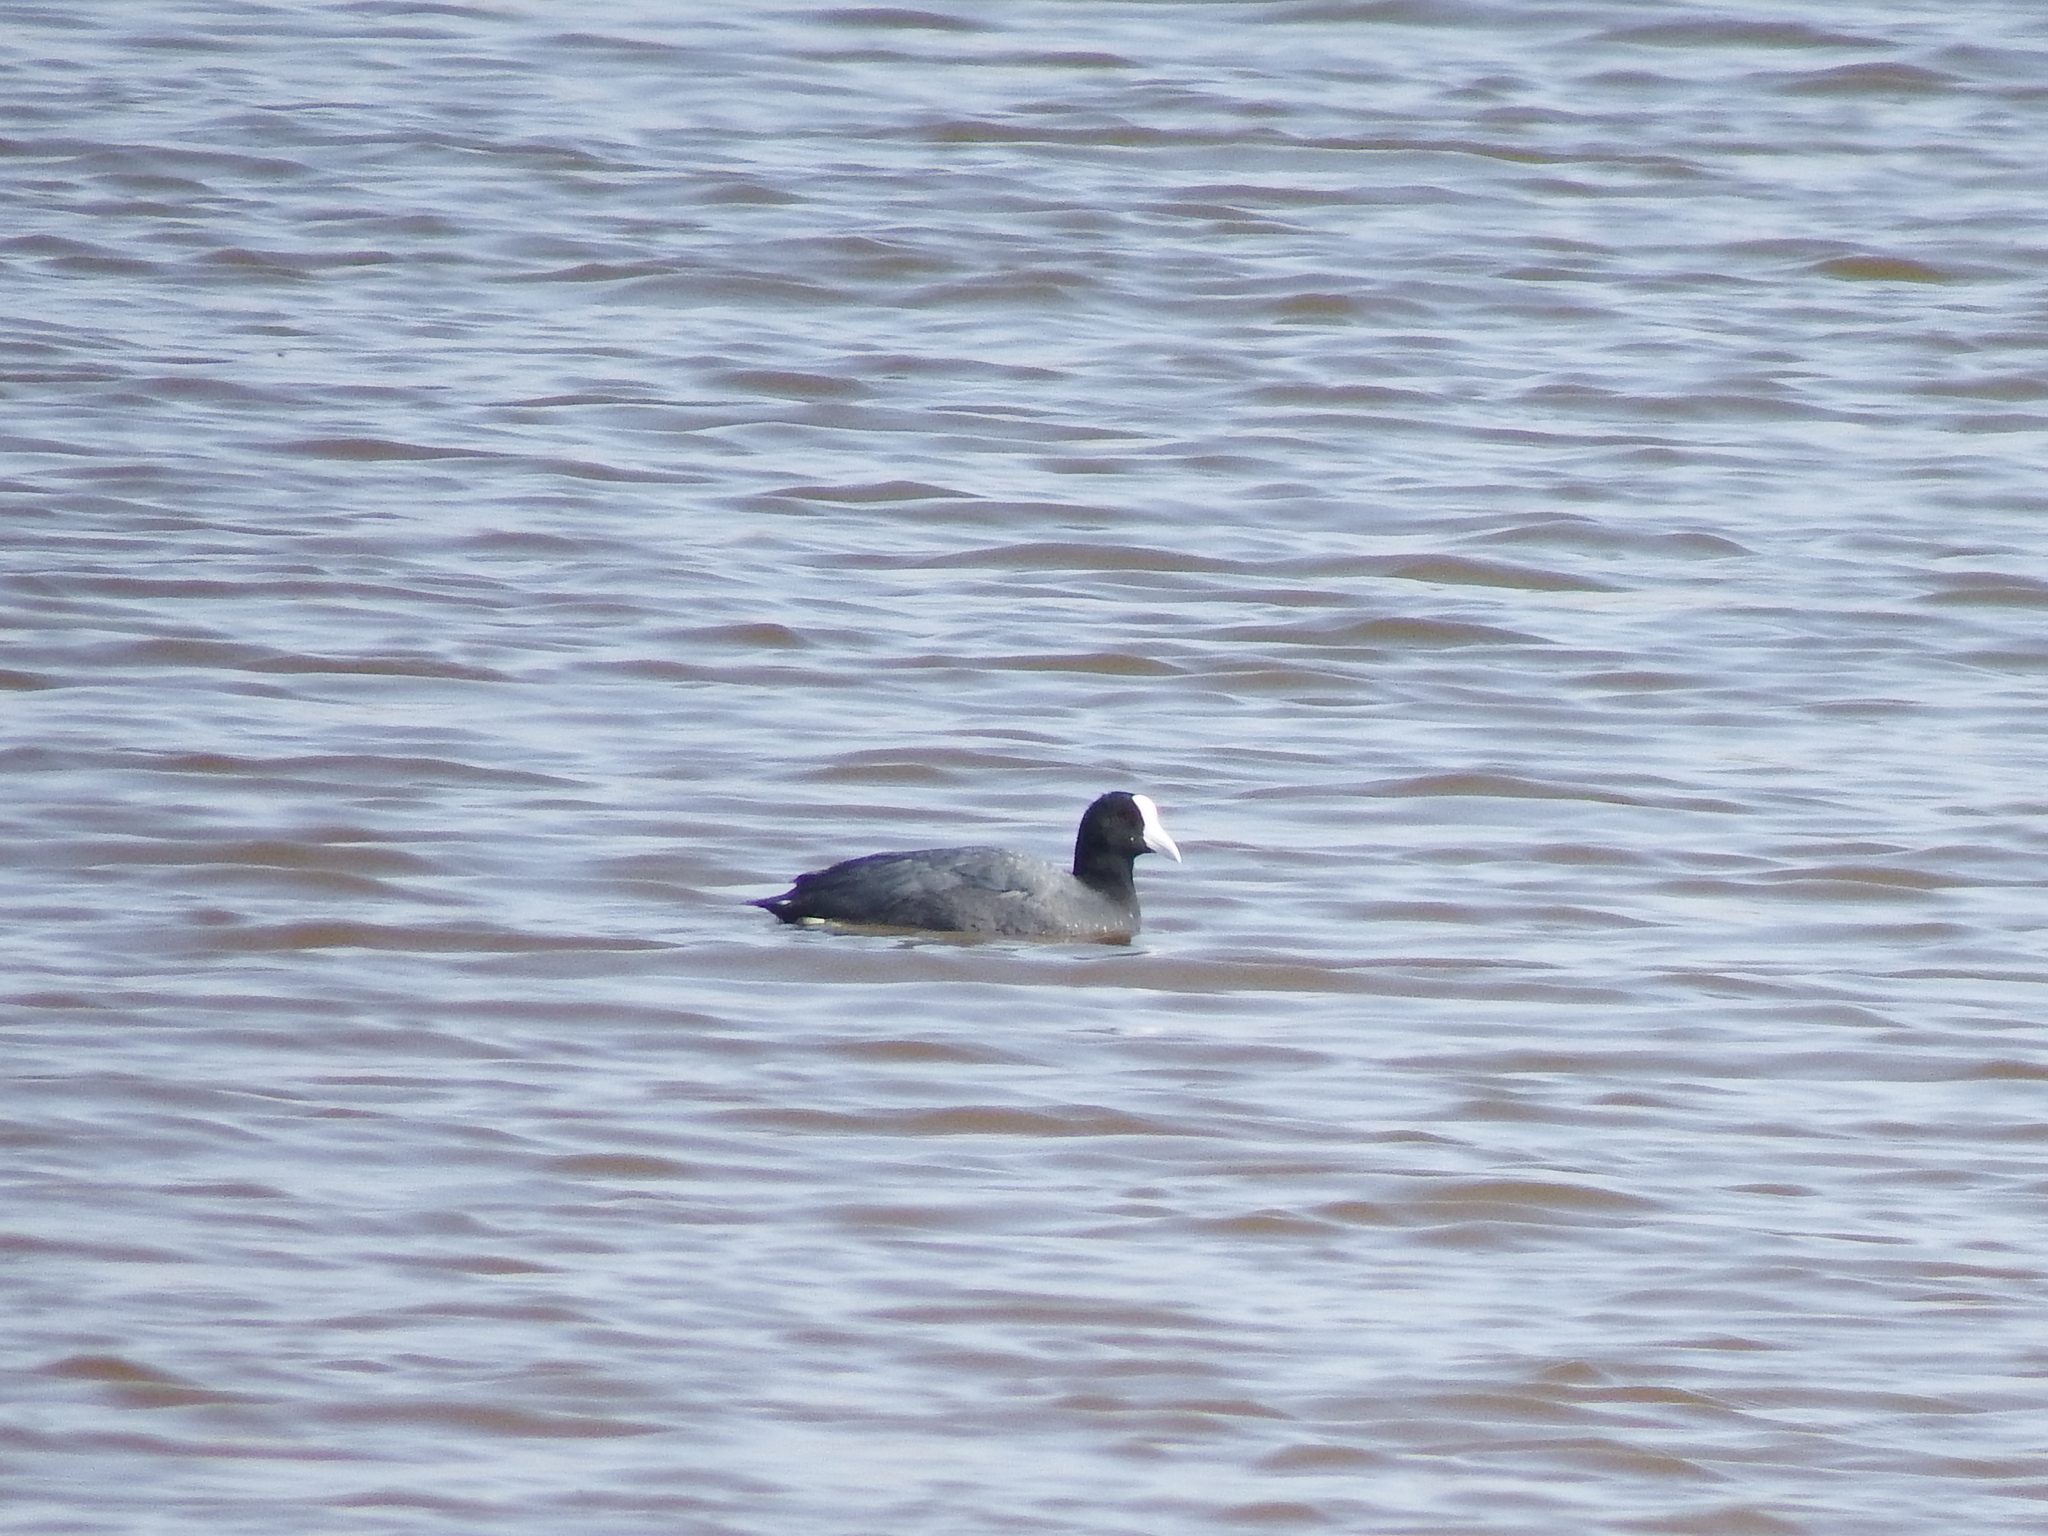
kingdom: Animalia
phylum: Chordata
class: Aves
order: Gruiformes
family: Rallidae
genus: Fulica
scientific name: Fulica ardesiaca
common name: Andean coot
